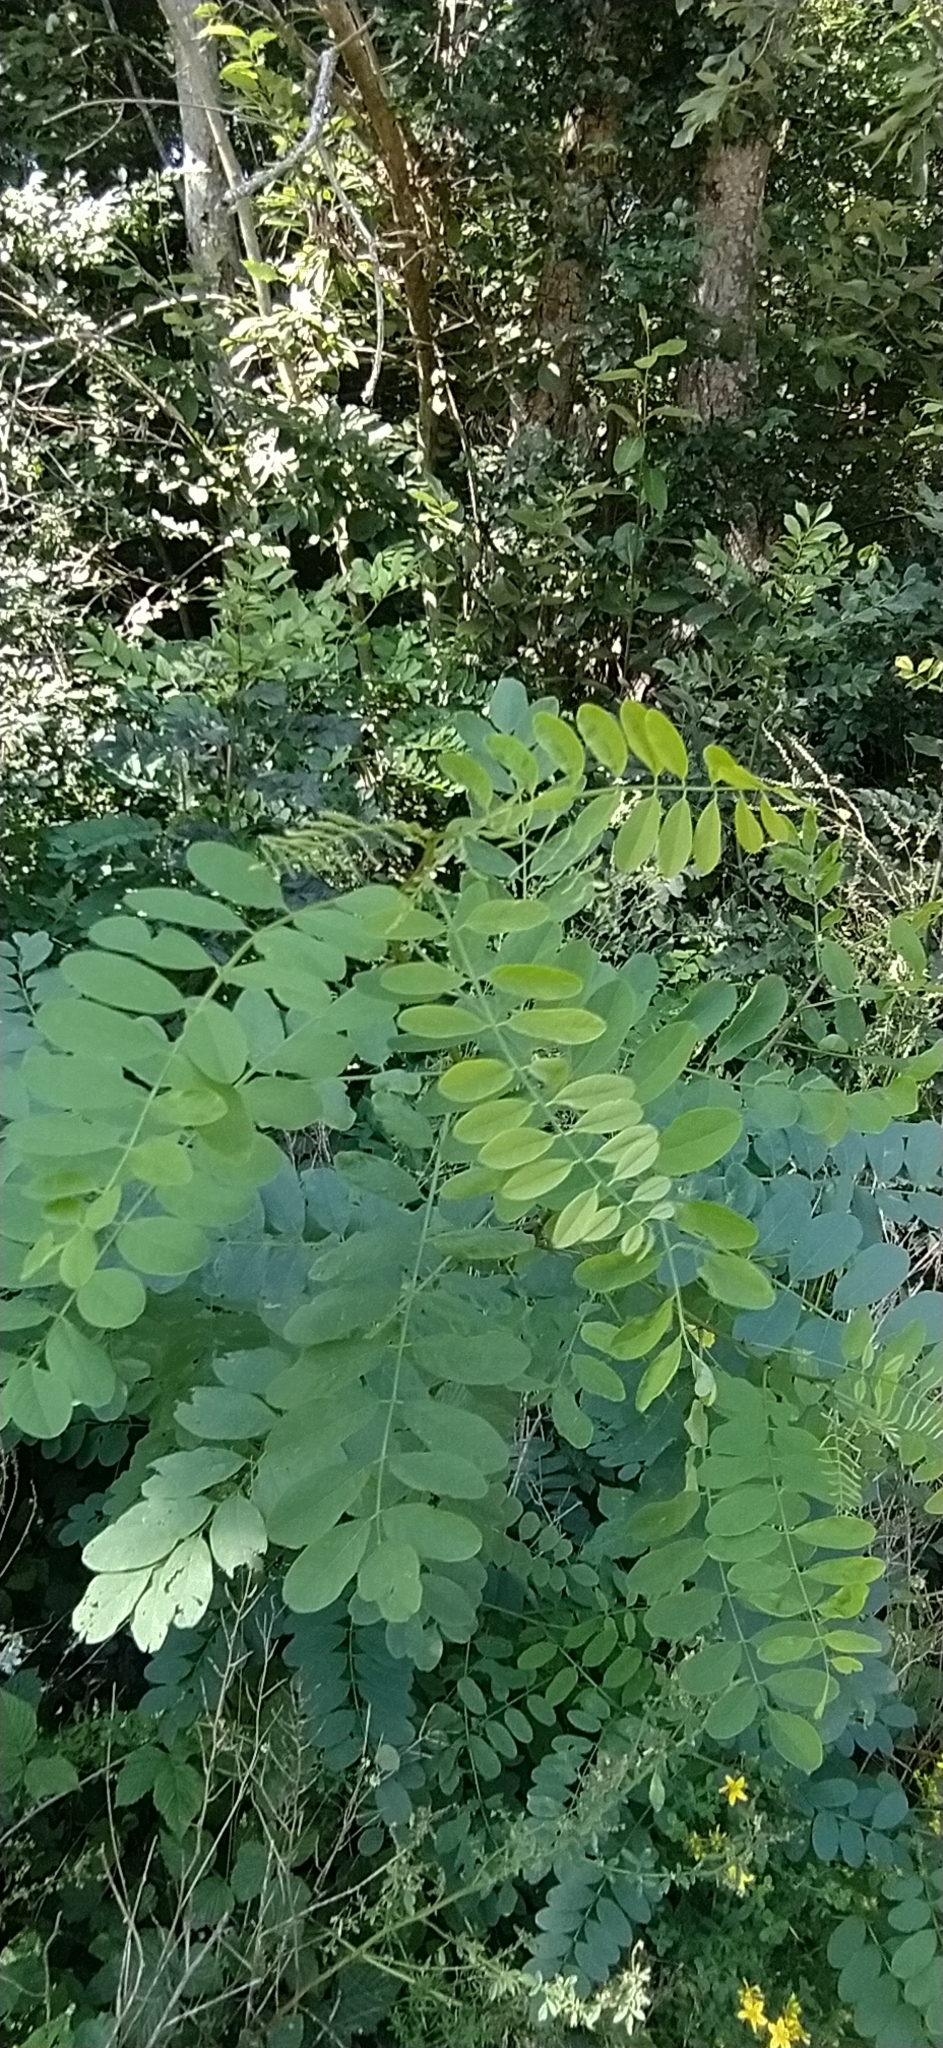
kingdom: Plantae
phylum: Tracheophyta
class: Magnoliopsida
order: Fabales
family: Fabaceae
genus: Robinia
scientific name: Robinia pseudoacacia
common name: Black locust
